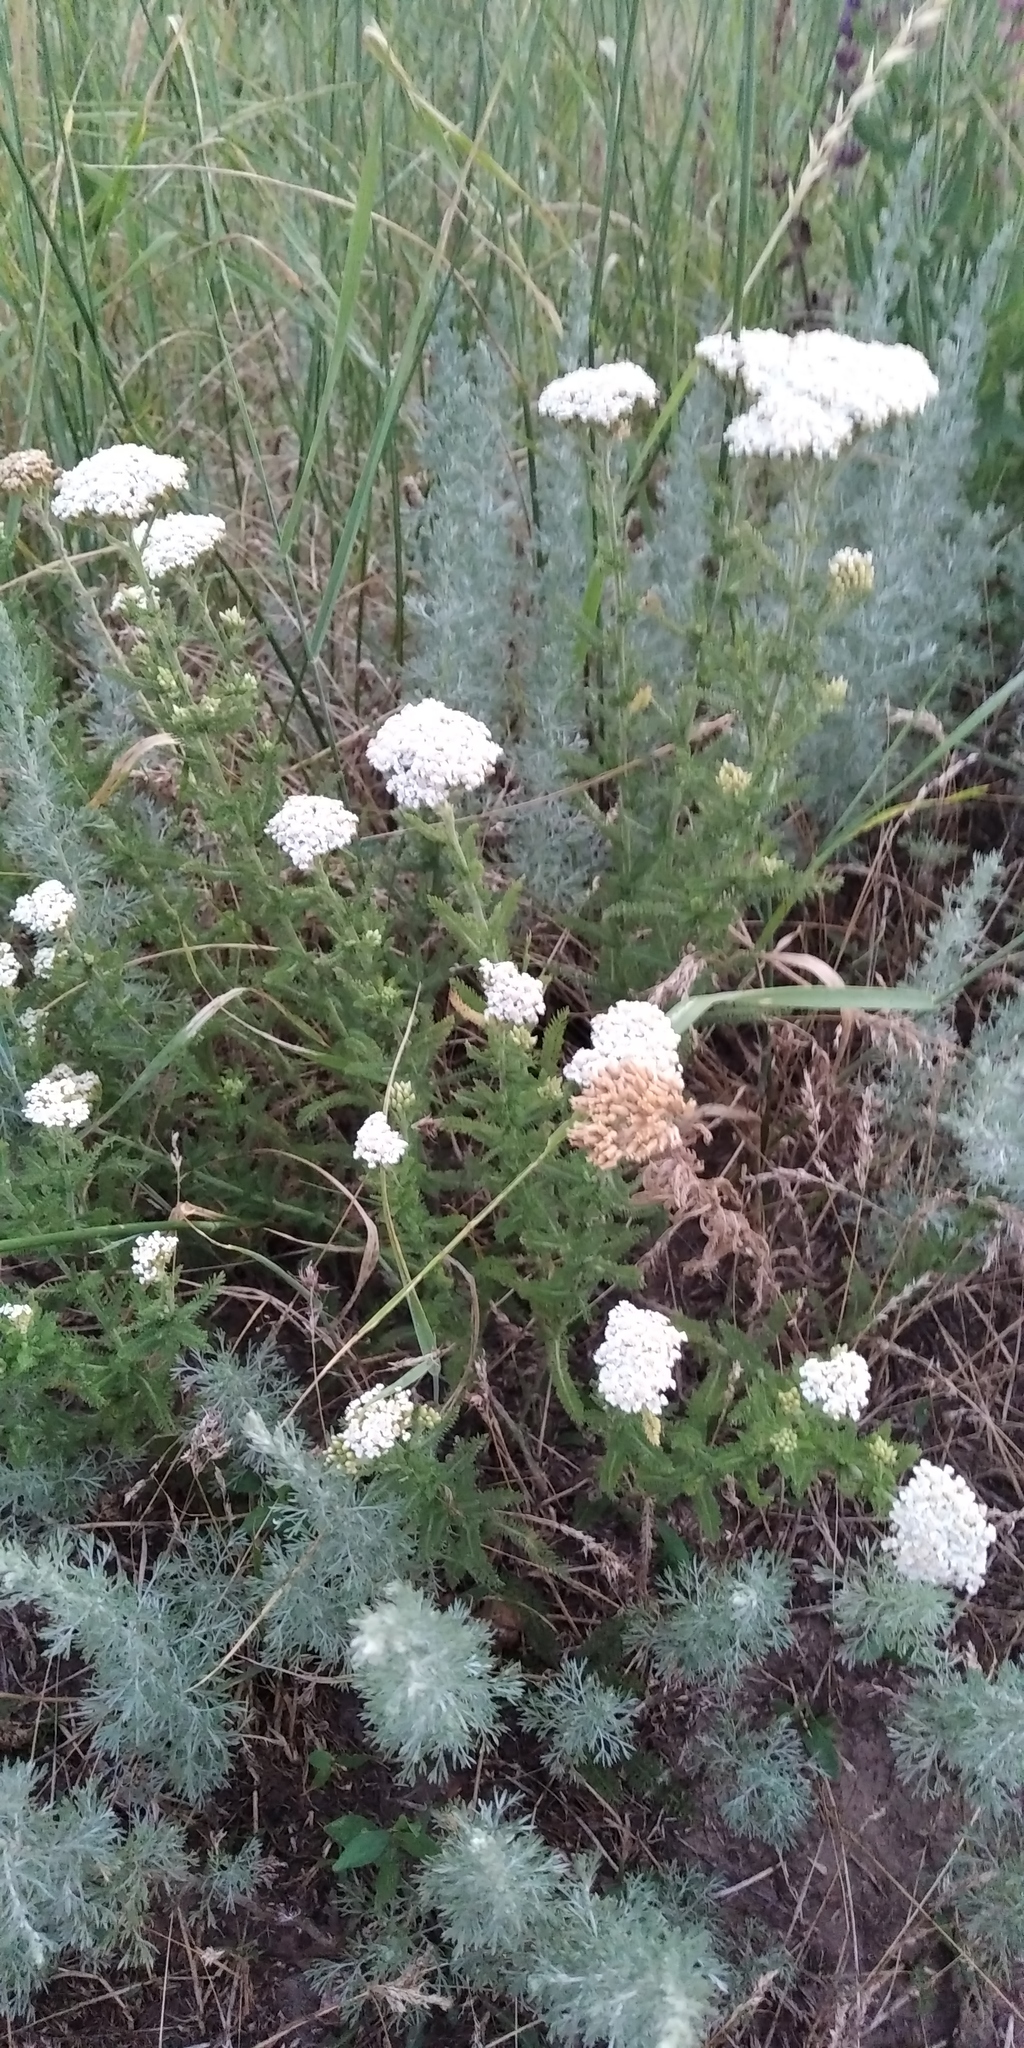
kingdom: Plantae
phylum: Tracheophyta
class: Magnoliopsida
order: Asterales
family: Asteraceae
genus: Achillea
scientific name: Achillea millefolium
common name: Yarrow
